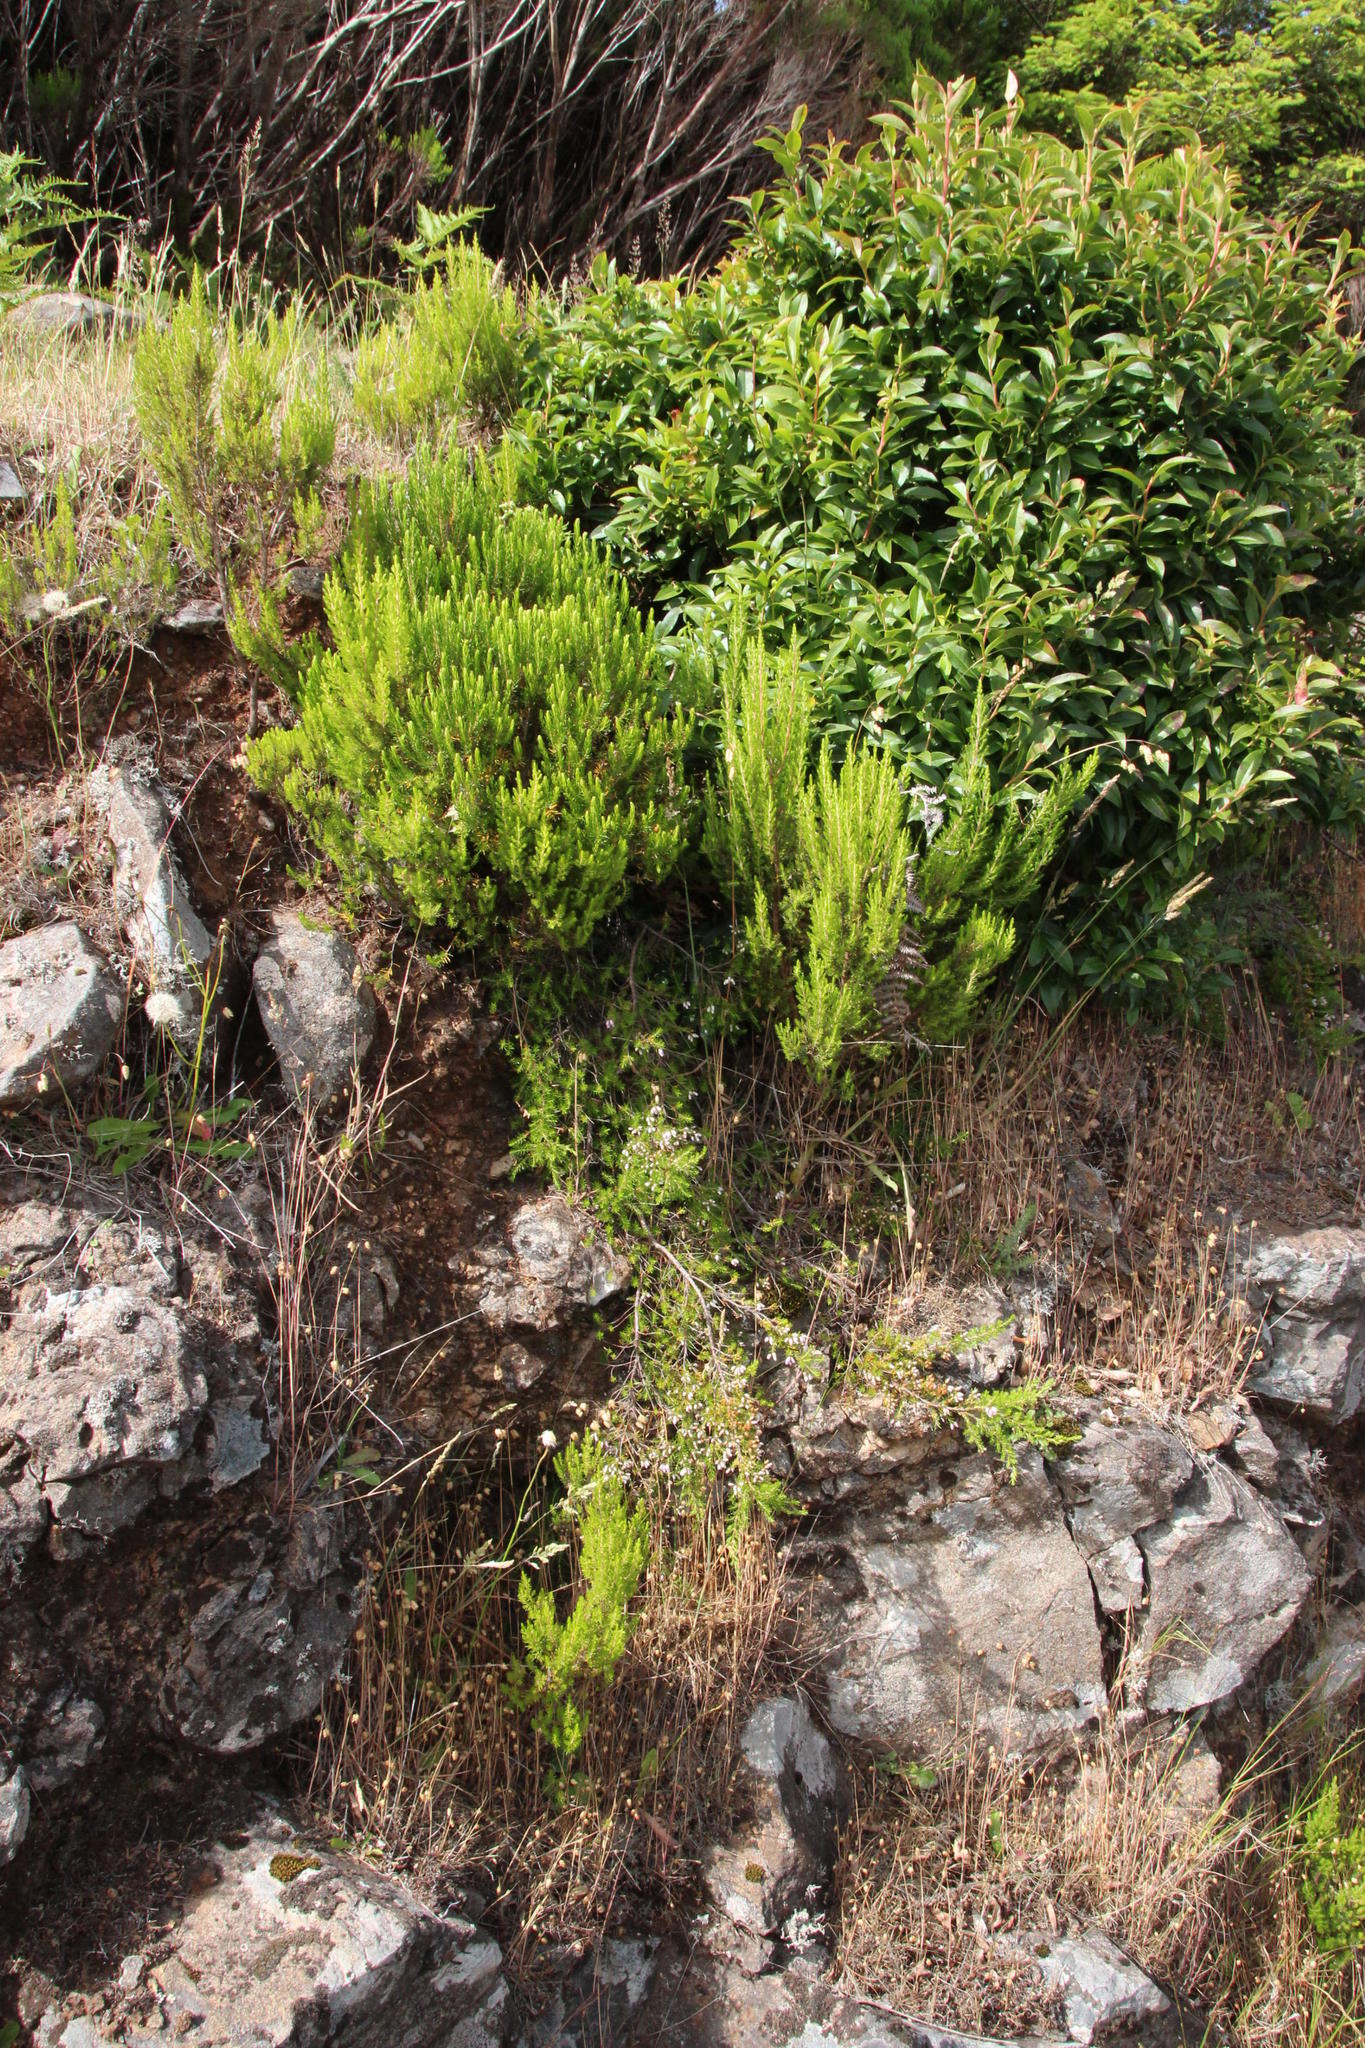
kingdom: Plantae
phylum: Tracheophyta
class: Magnoliopsida
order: Ericales
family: Ericaceae
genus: Erica
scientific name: Erica maderensis
